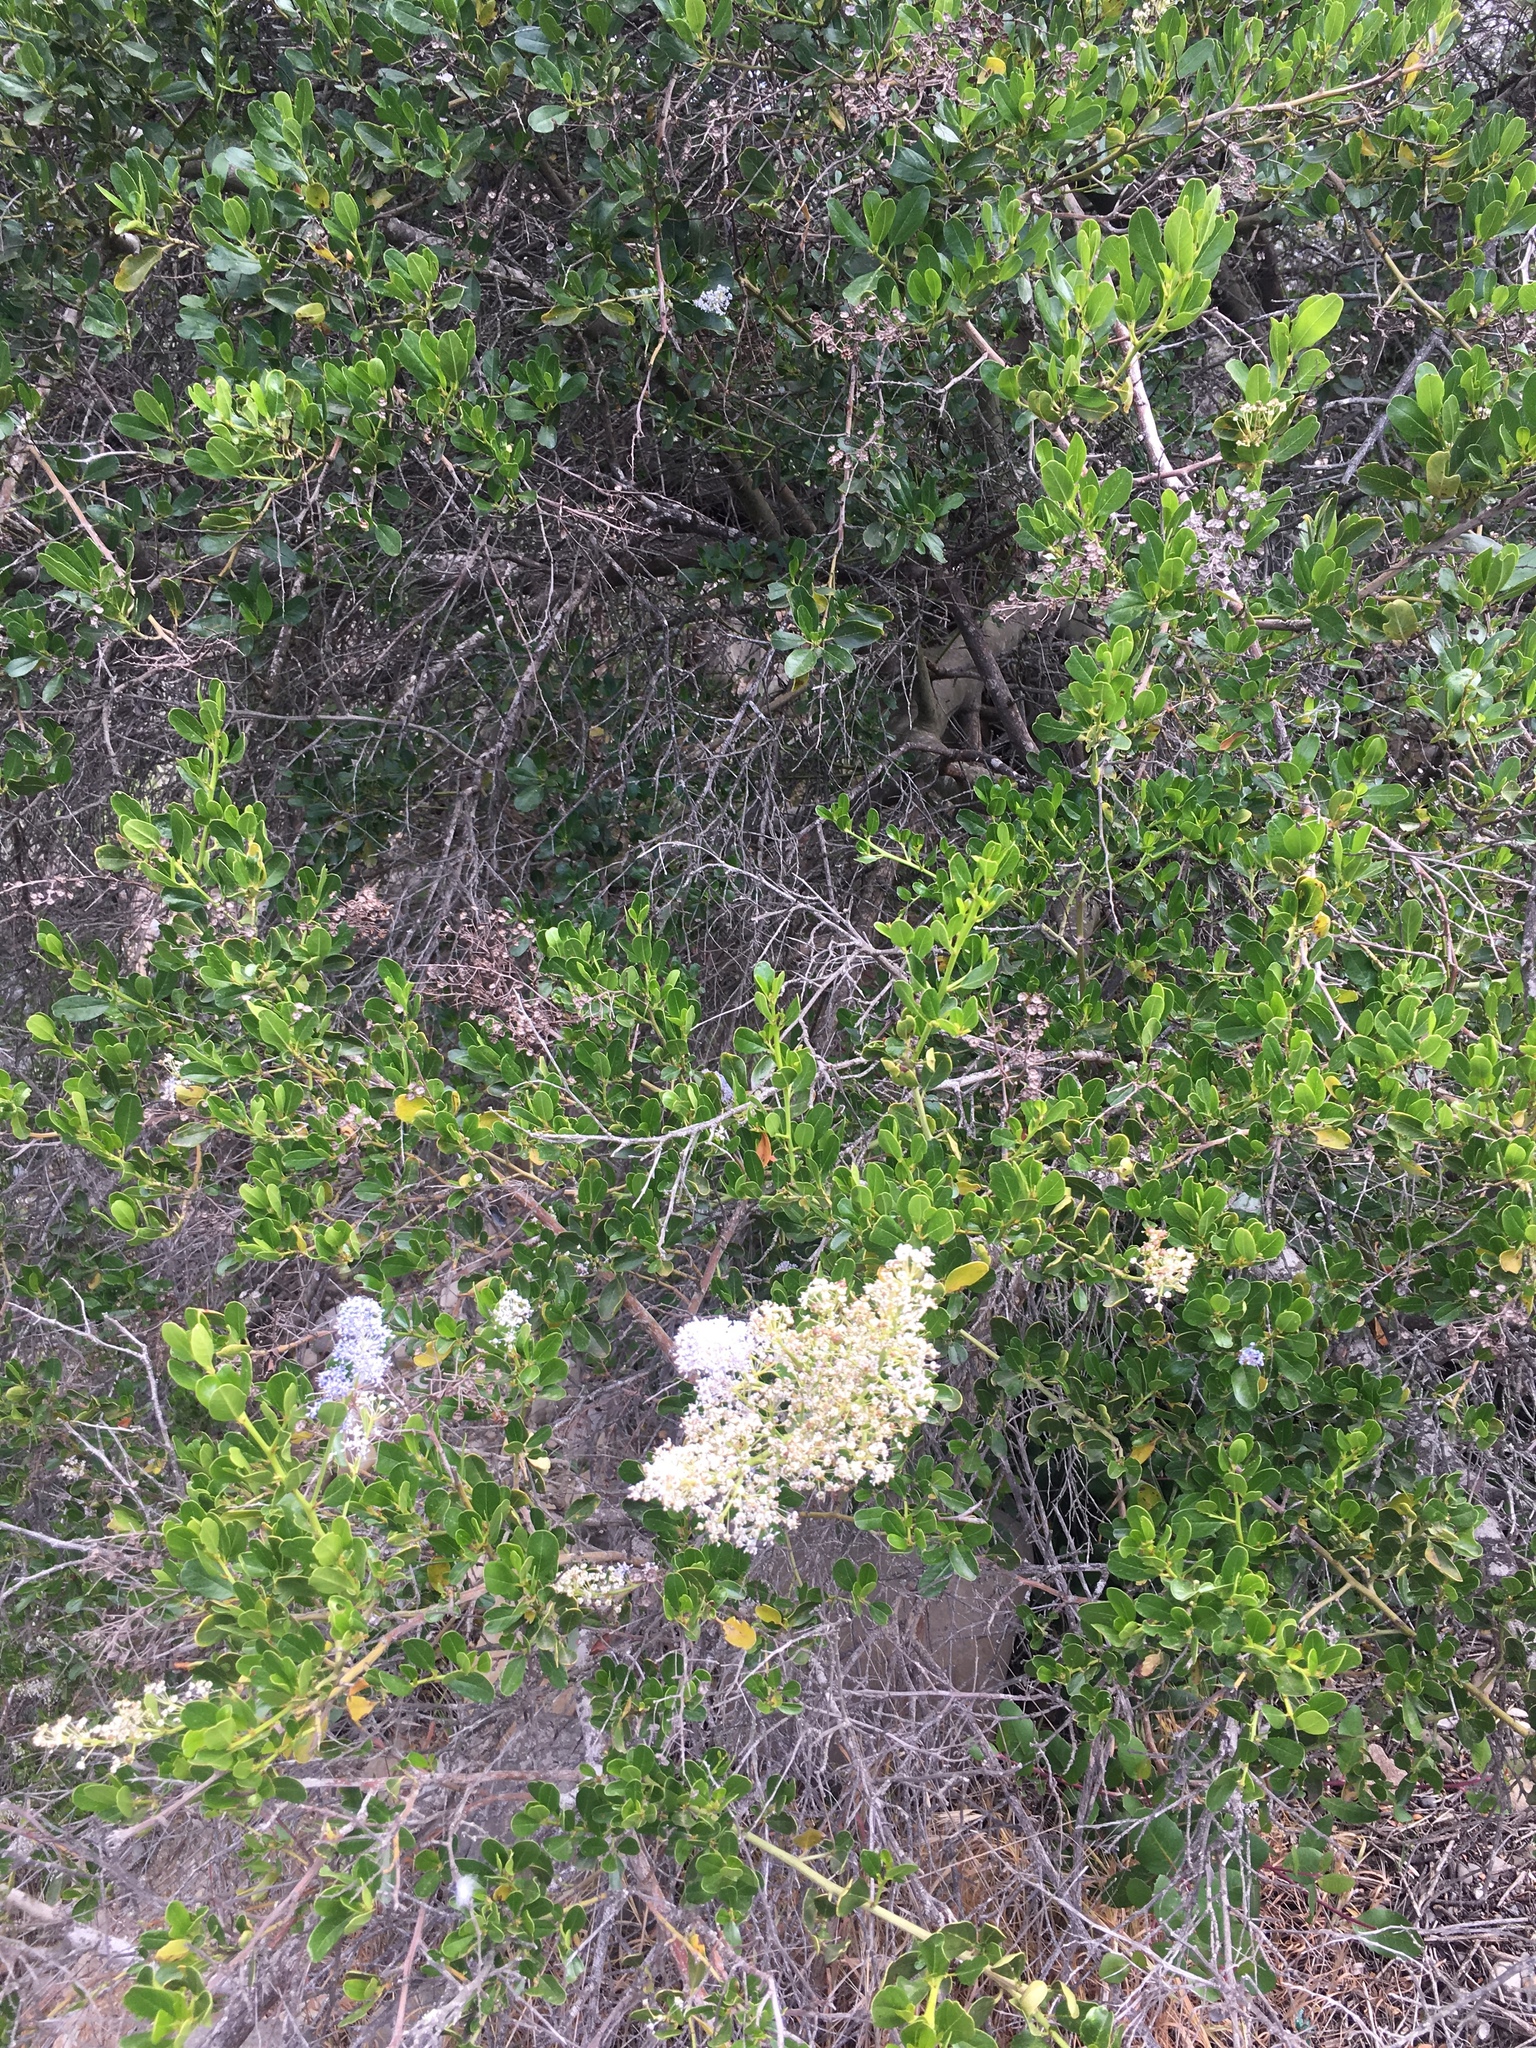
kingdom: Plantae
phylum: Tracheophyta
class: Magnoliopsida
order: Rosales
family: Rhamnaceae
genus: Ceanothus
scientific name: Ceanothus spinosus
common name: Greenbark whitethorn
